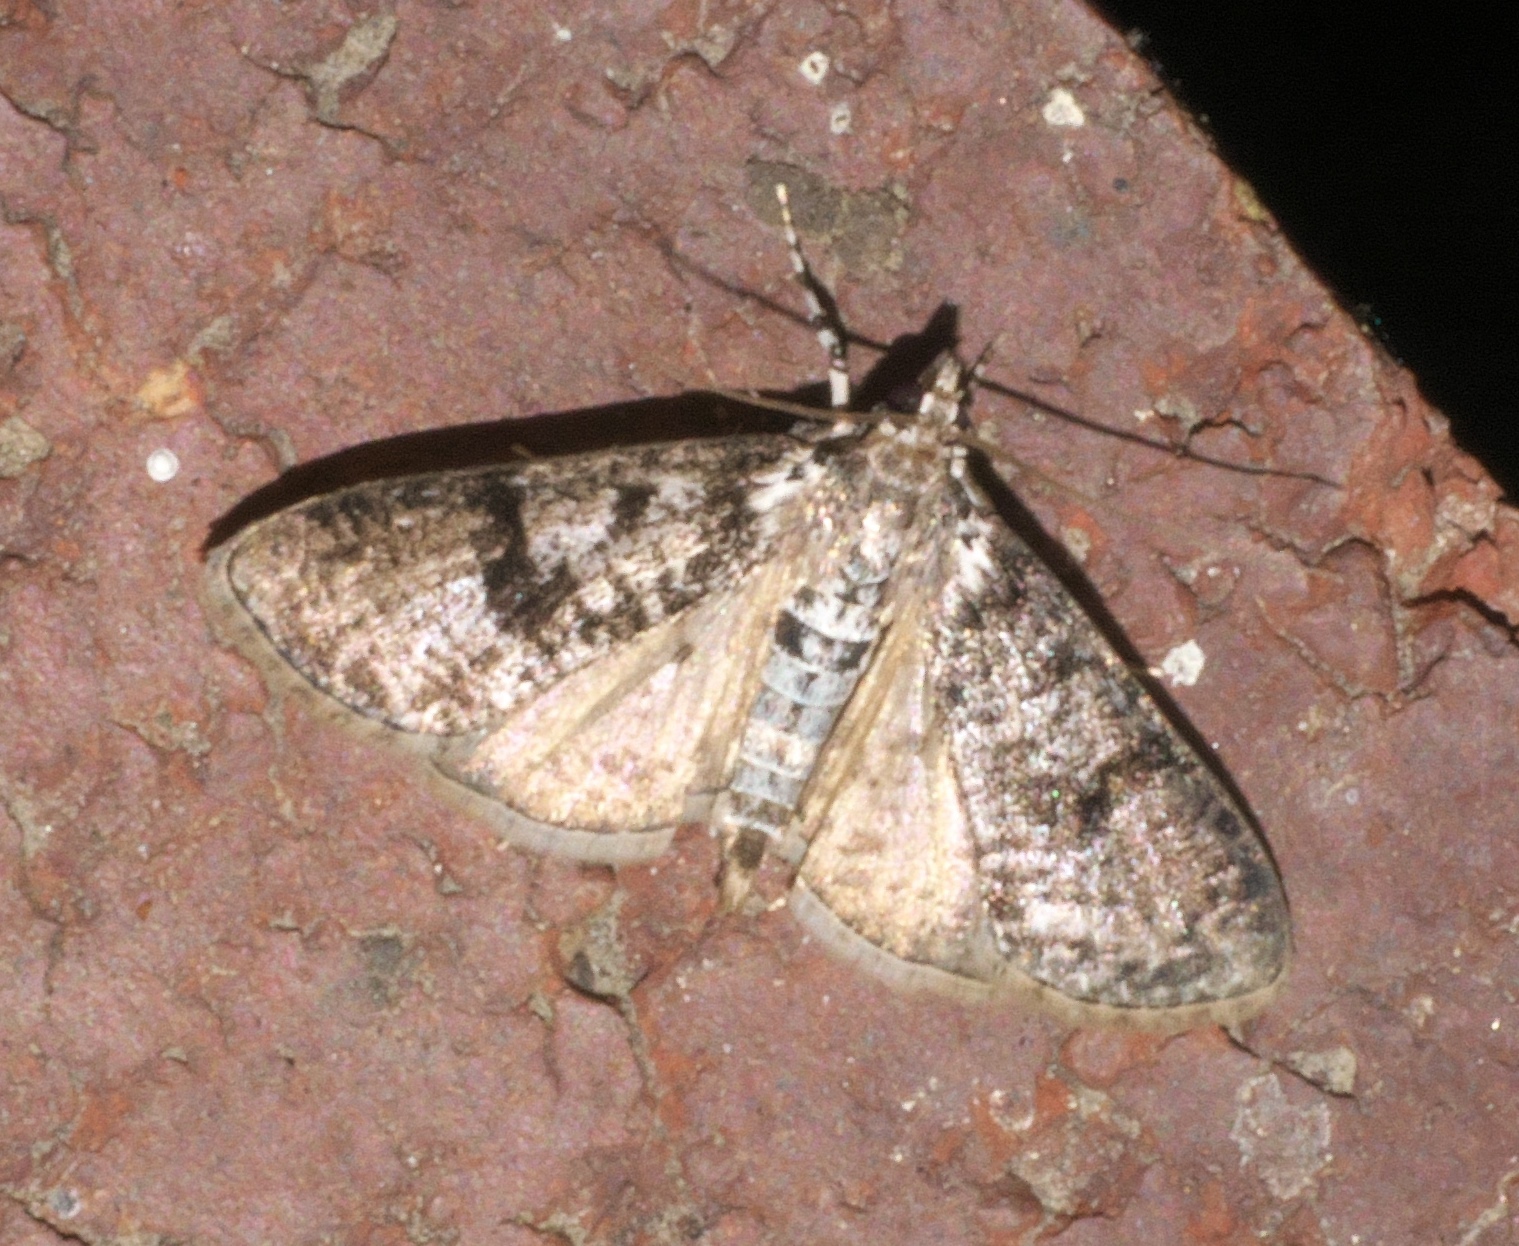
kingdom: Animalia
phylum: Arthropoda
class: Insecta
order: Lepidoptera
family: Crambidae
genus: Palpita
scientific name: Palpita magniferalis
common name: Splendid palpita moth
